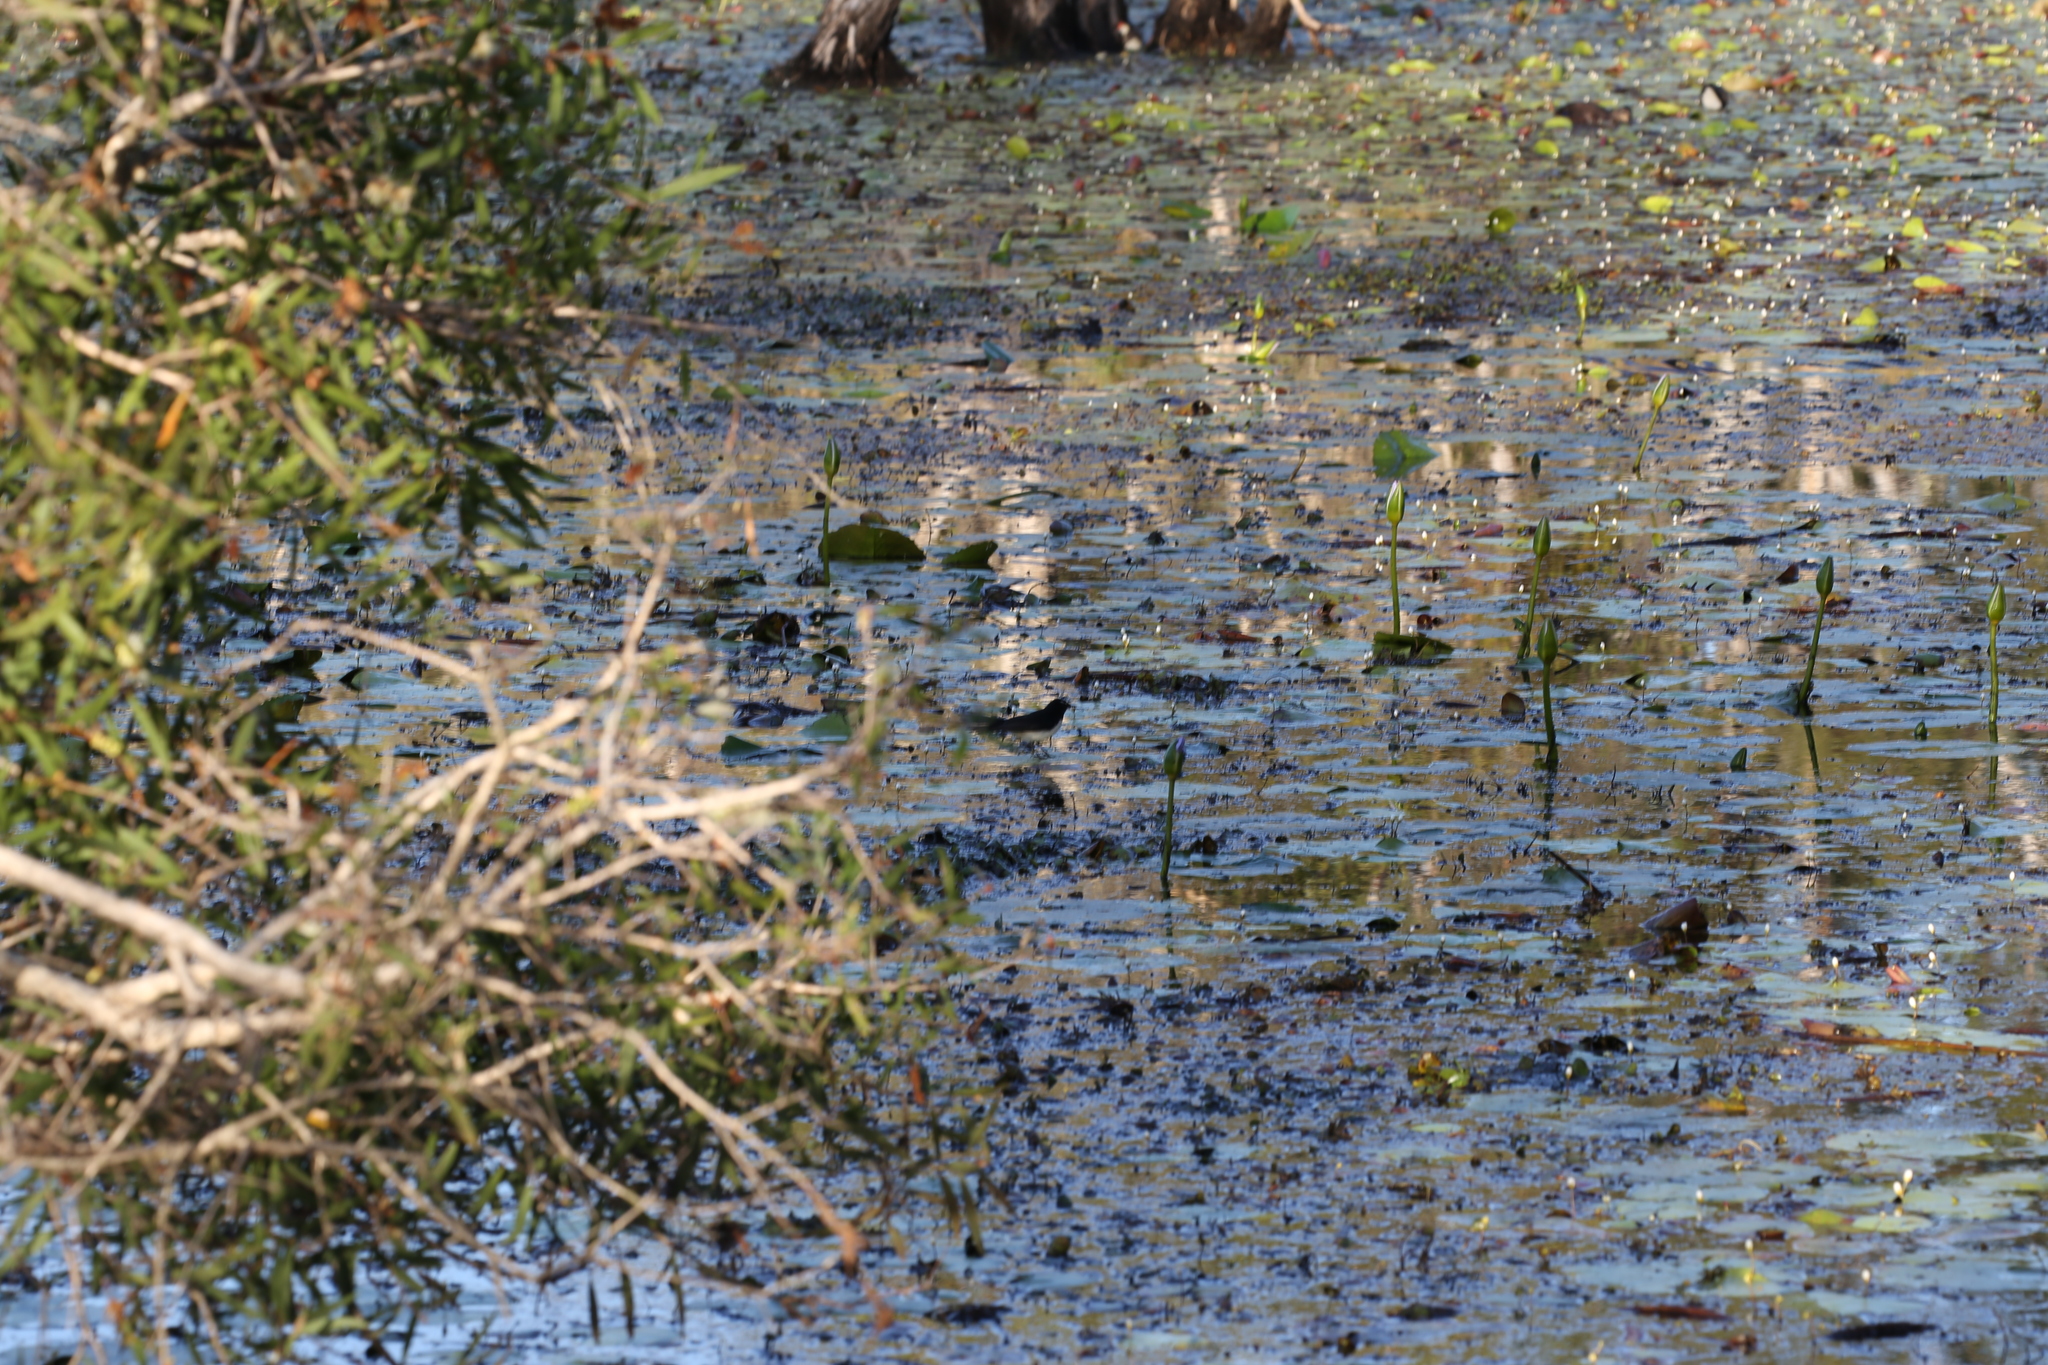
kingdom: Animalia
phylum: Chordata
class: Aves
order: Passeriformes
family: Rhipiduridae
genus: Rhipidura
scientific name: Rhipidura leucophrys
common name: Willie wagtail
